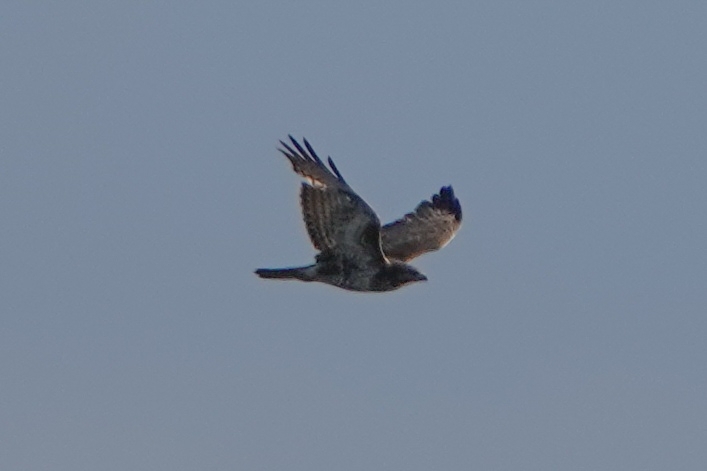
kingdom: Animalia
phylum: Chordata
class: Aves
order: Accipitriformes
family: Accipitridae
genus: Buteo
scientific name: Buteo lagopus
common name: Rough-legged buzzard
